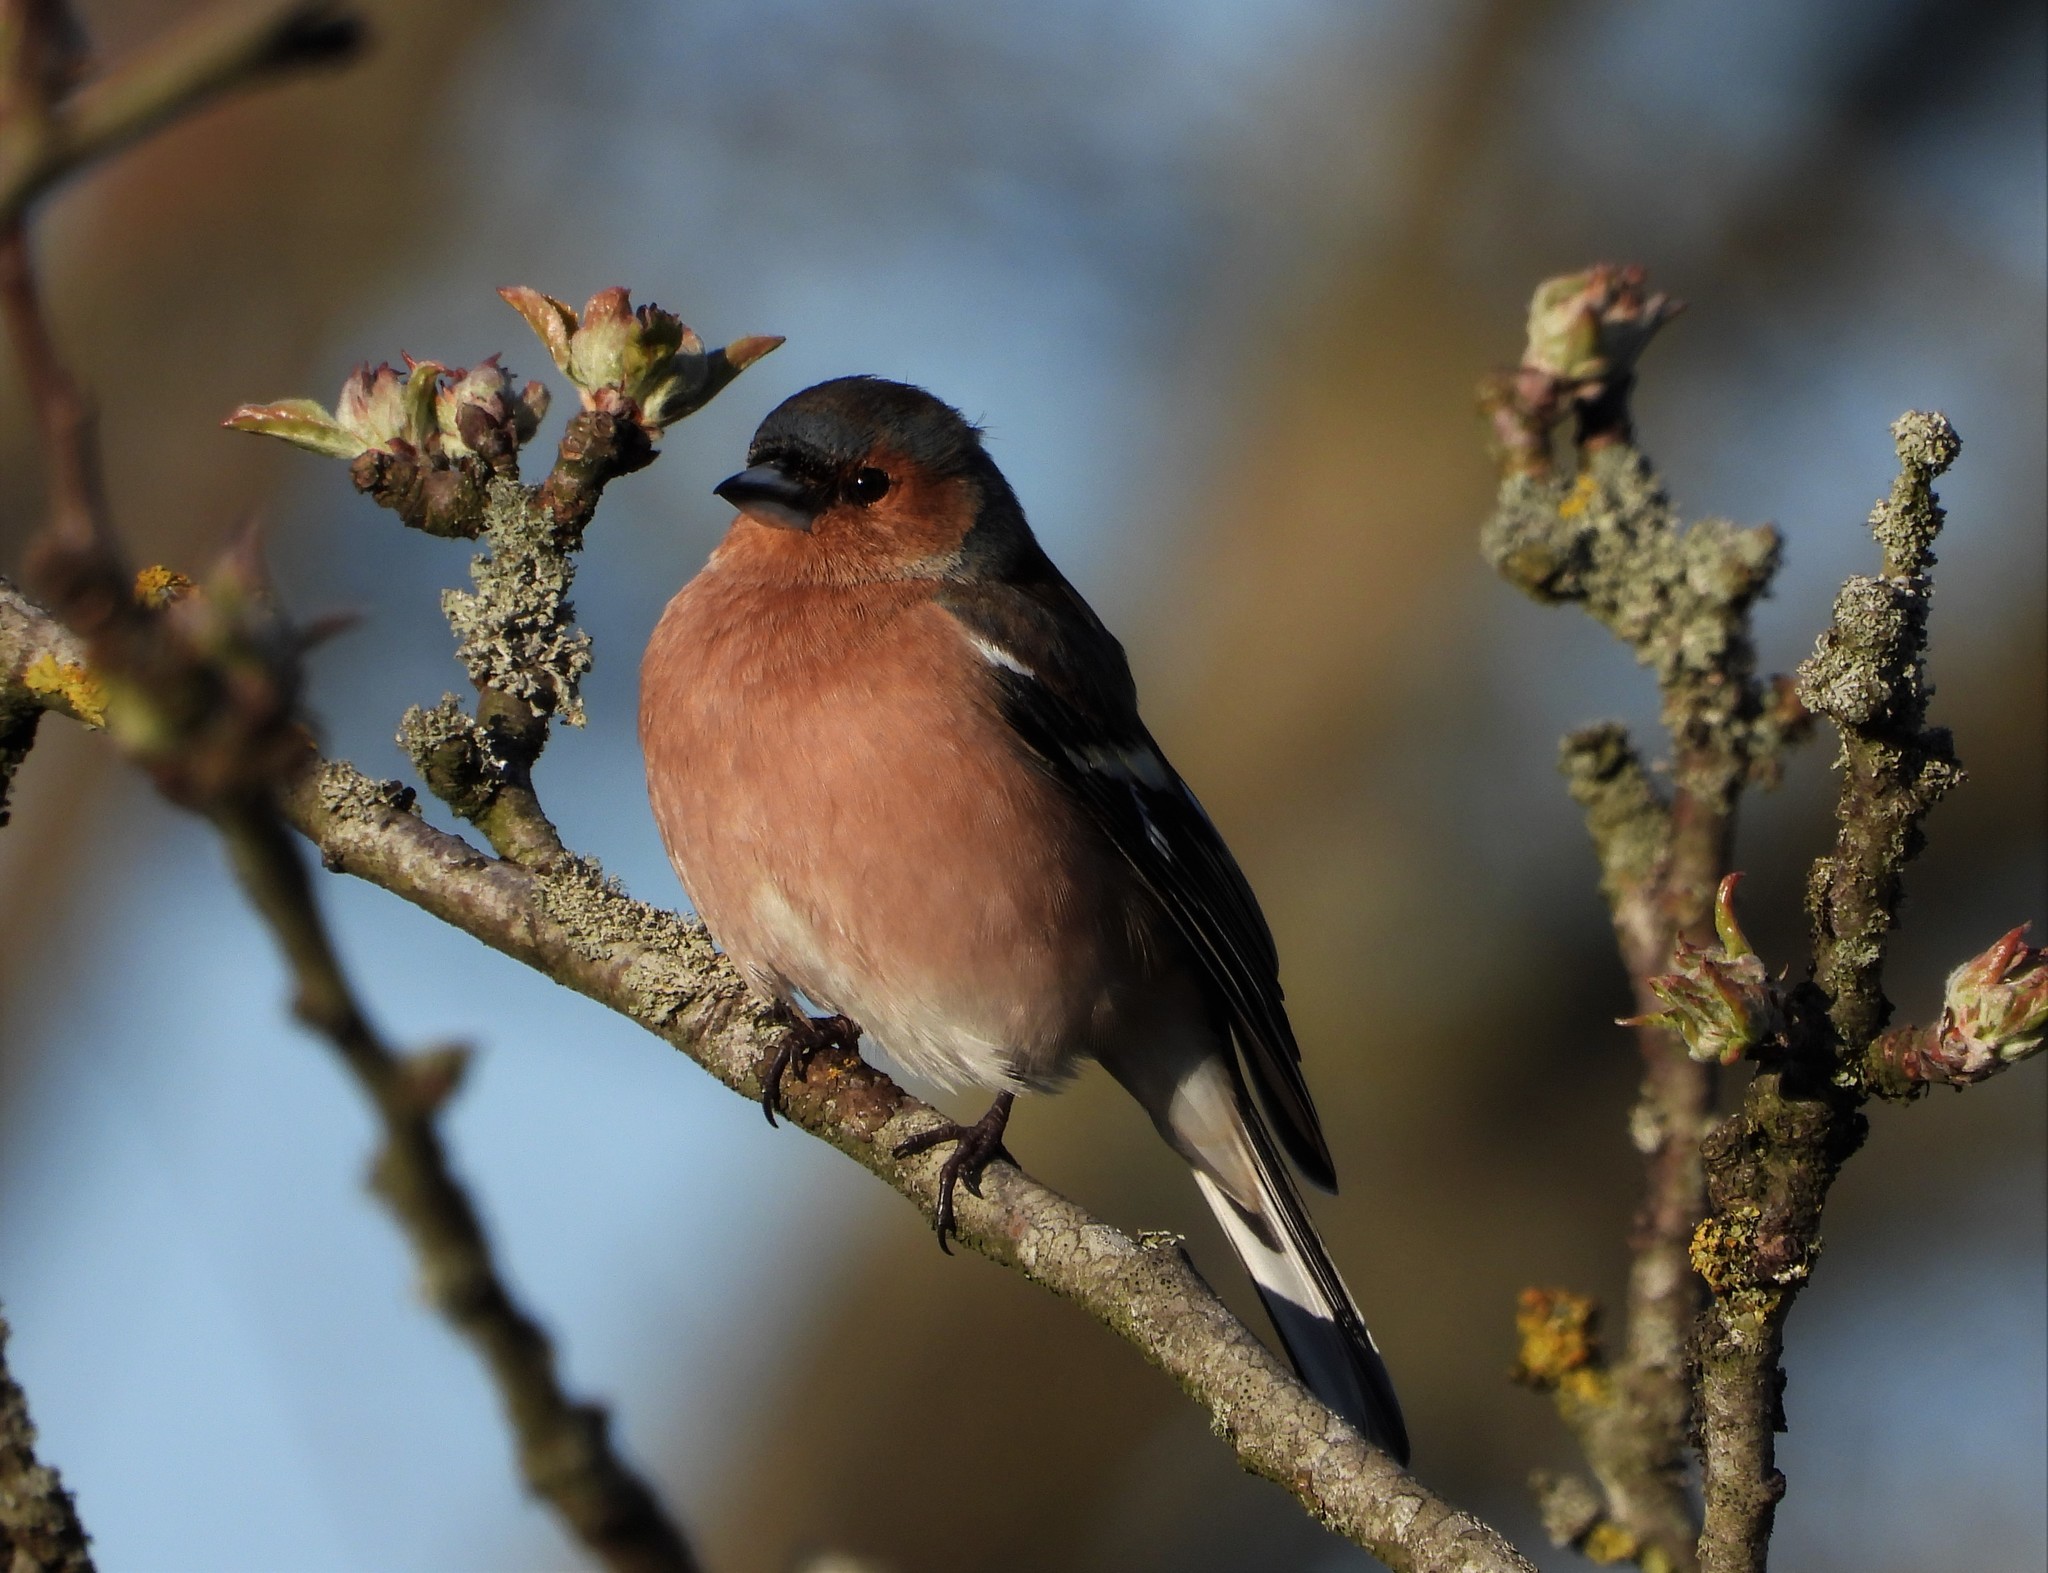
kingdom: Animalia
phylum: Chordata
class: Aves
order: Passeriformes
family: Fringillidae
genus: Fringilla
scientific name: Fringilla coelebs
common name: Common chaffinch
